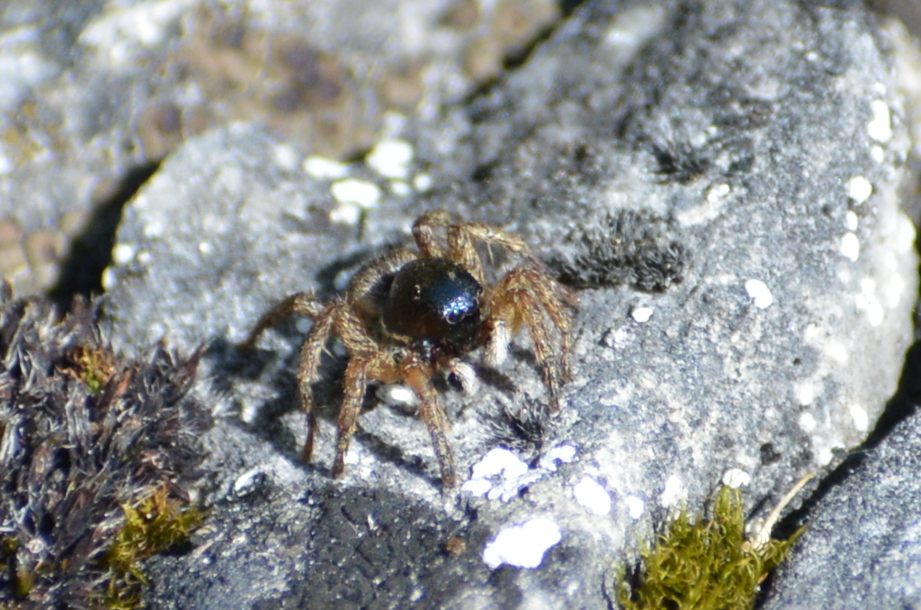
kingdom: Animalia
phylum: Arthropoda
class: Arachnida
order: Araneae
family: Salticidae
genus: Asianellus
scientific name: Asianellus festivus
